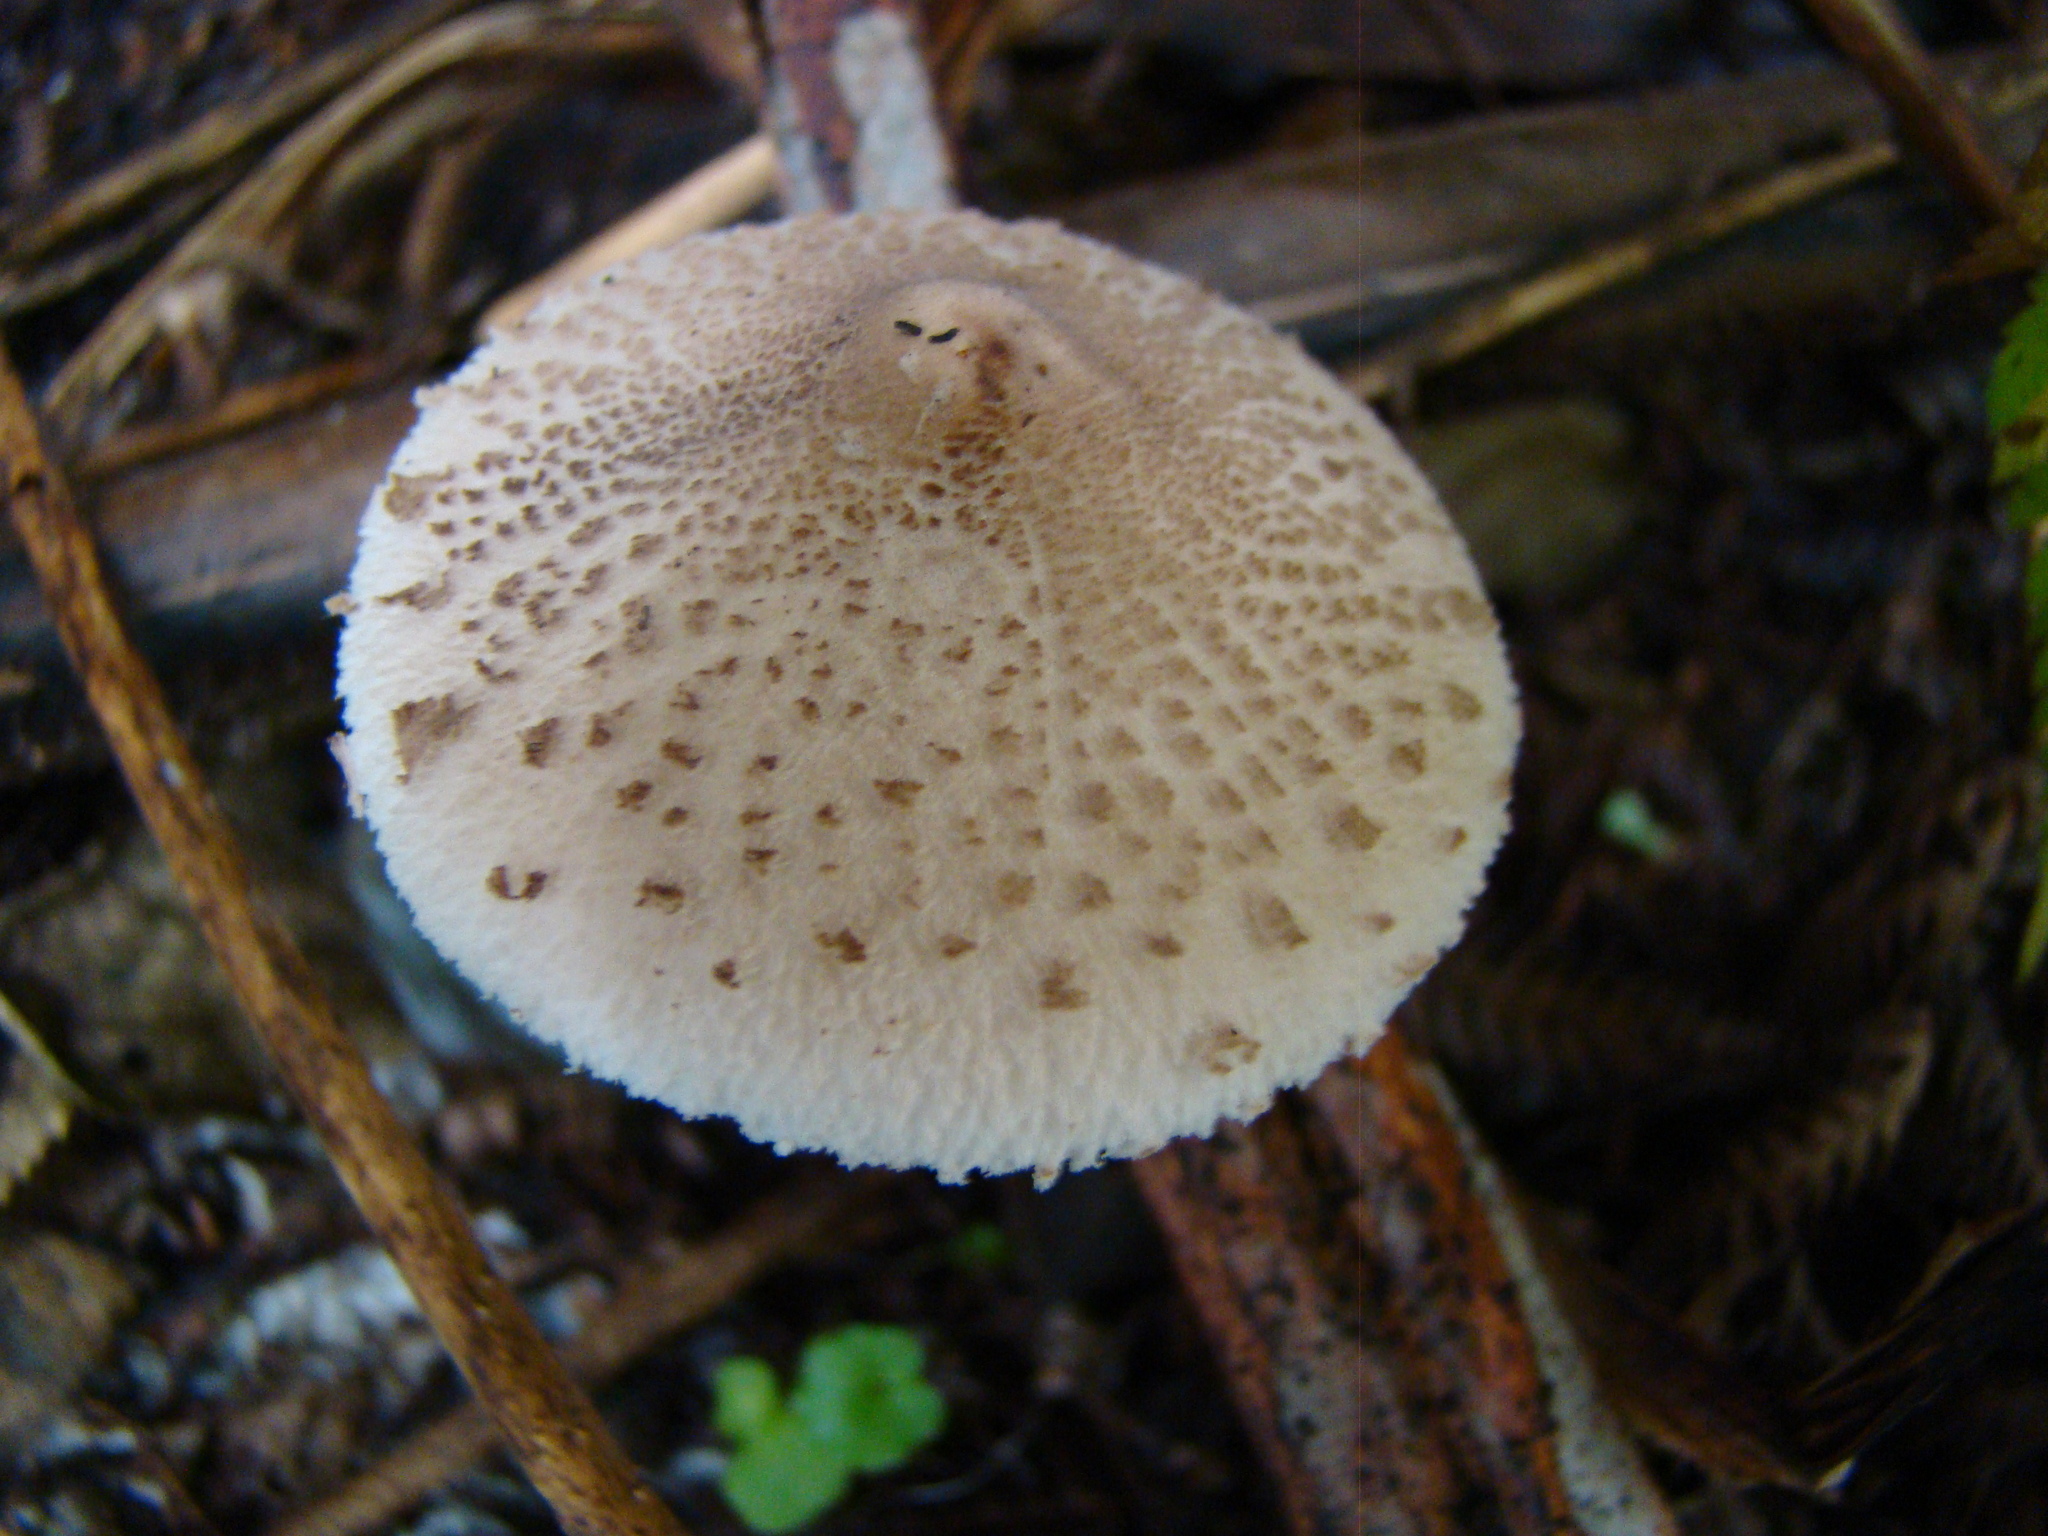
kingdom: Fungi
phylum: Basidiomycota
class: Agaricomycetes
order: Agaricales
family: Agaricaceae
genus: Macrolepiota
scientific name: Macrolepiota clelandii
